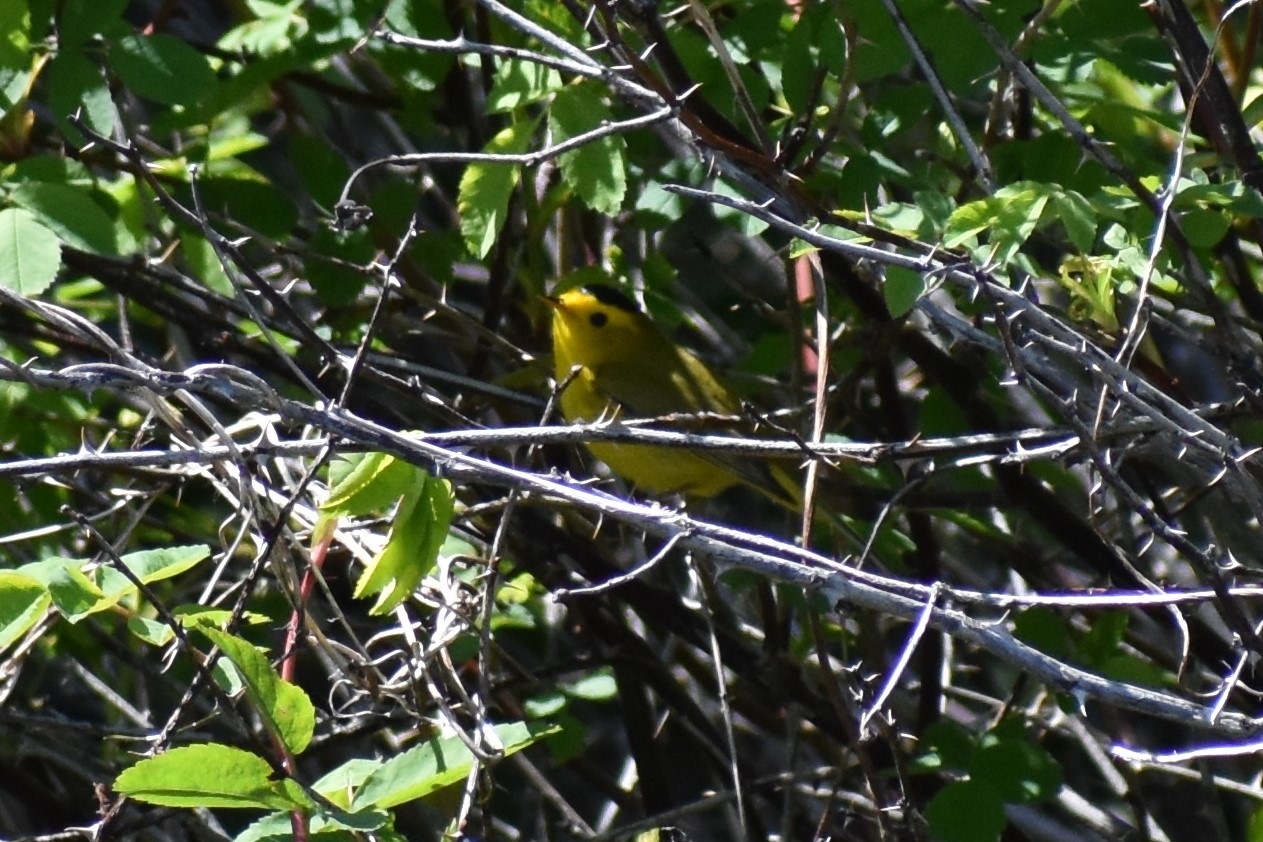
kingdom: Animalia
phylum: Chordata
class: Aves
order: Passeriformes
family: Parulidae
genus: Cardellina
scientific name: Cardellina pusilla
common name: Wilson's warbler
